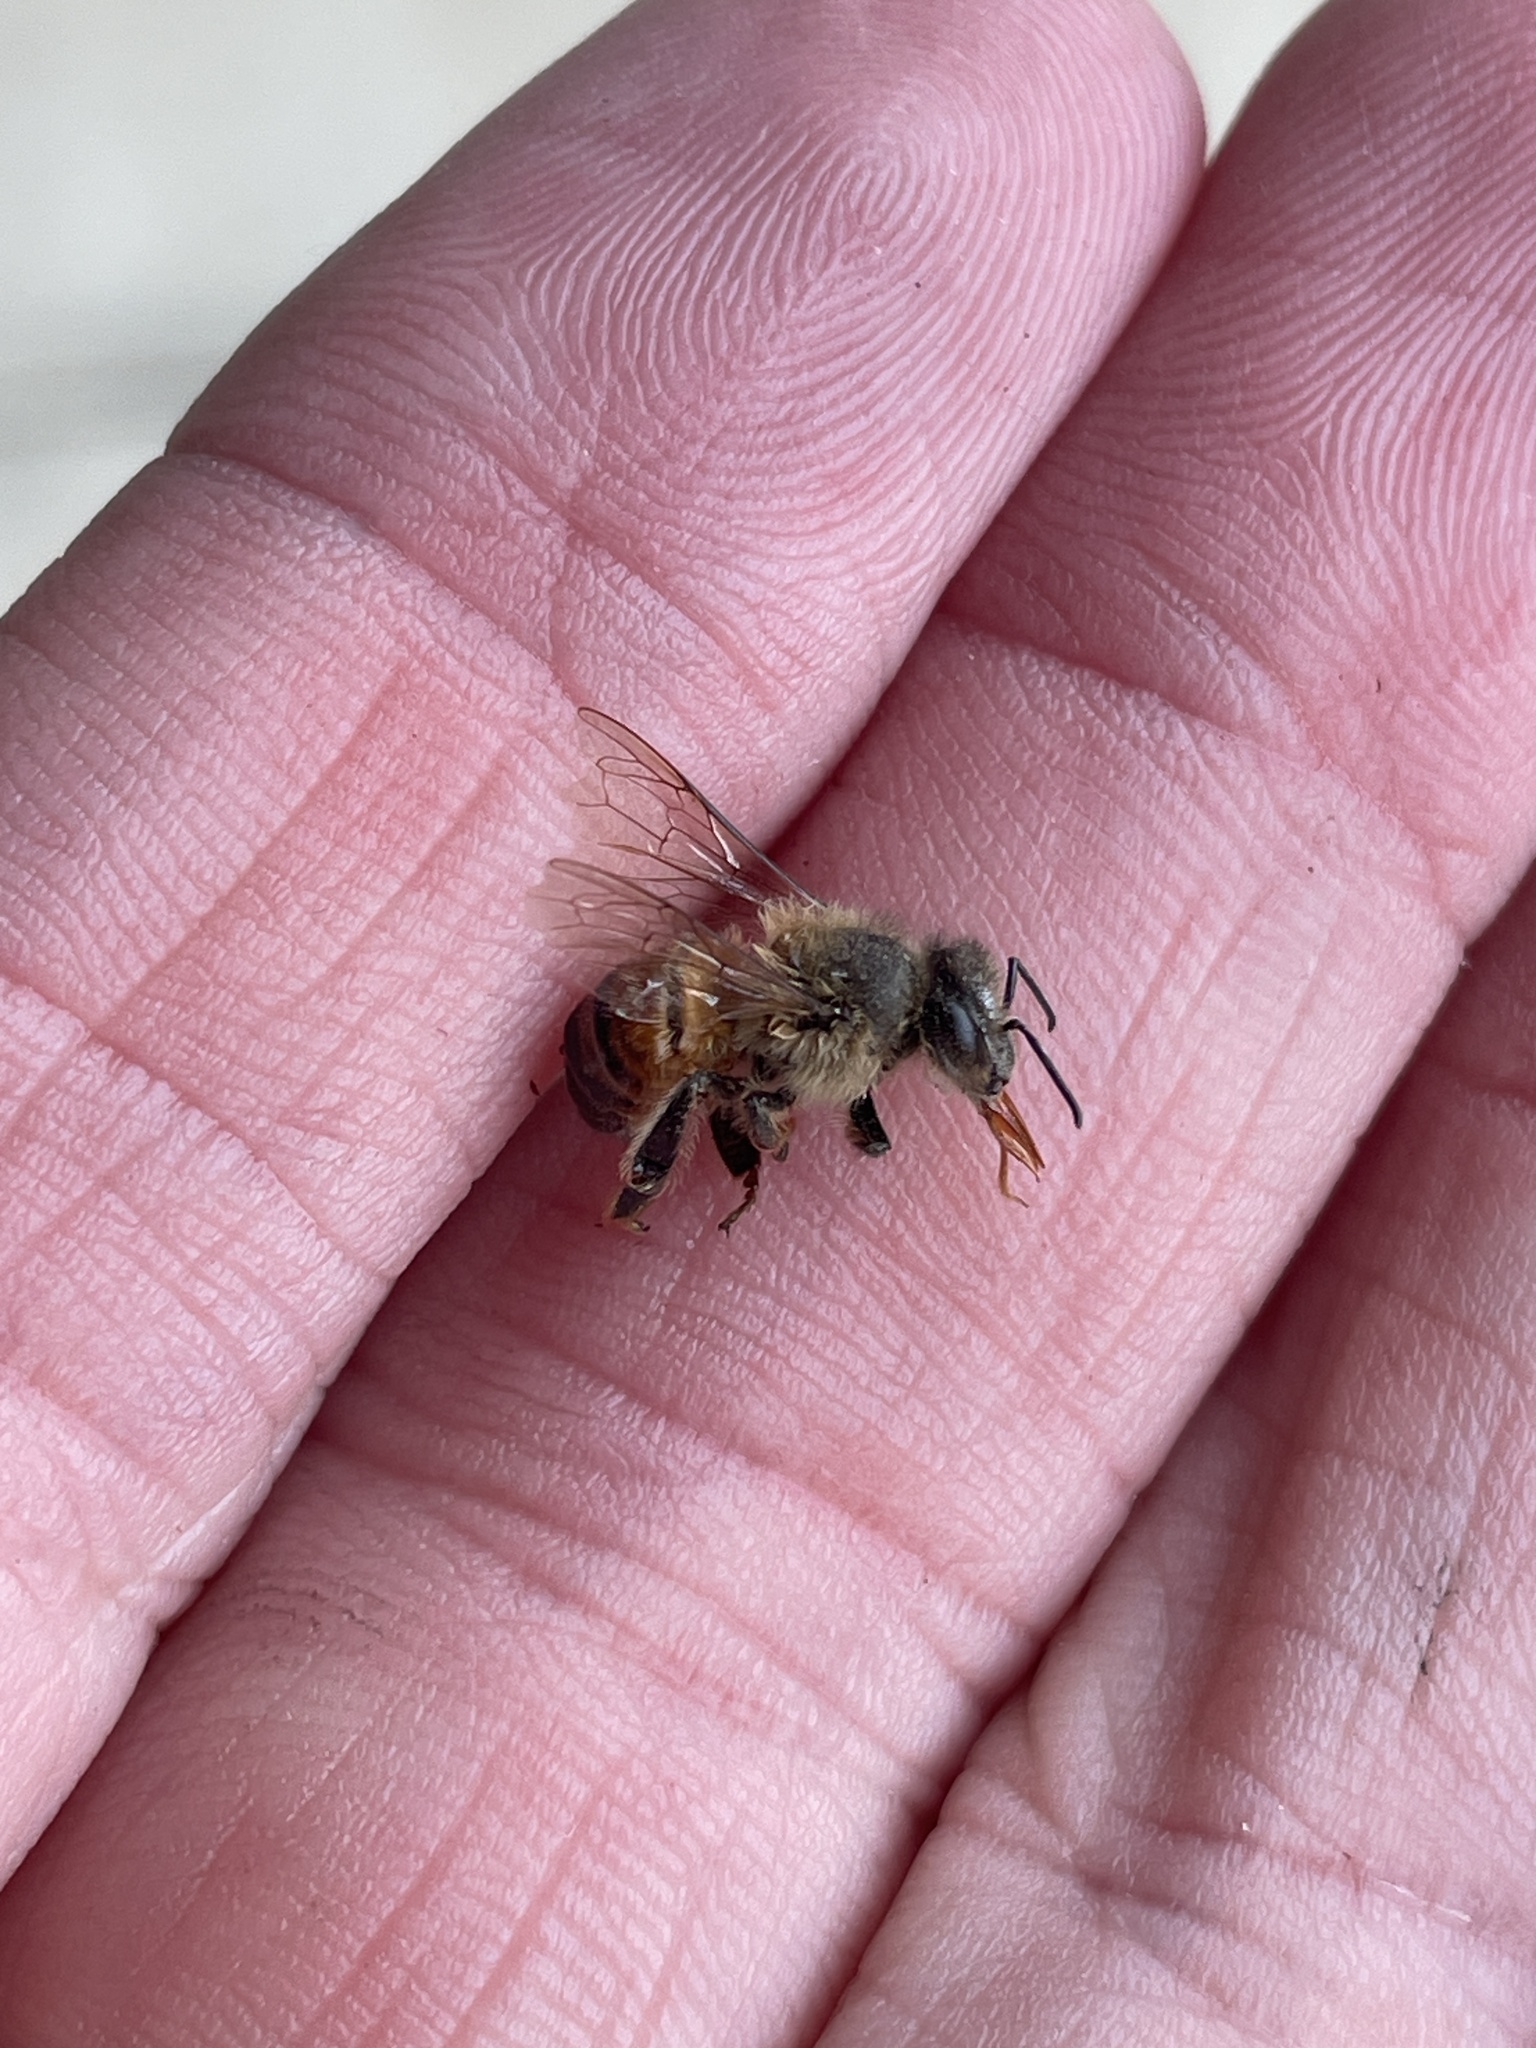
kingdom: Animalia
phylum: Arthropoda
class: Insecta
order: Hymenoptera
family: Apidae
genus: Apis
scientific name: Apis mellifera
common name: Honey bee
